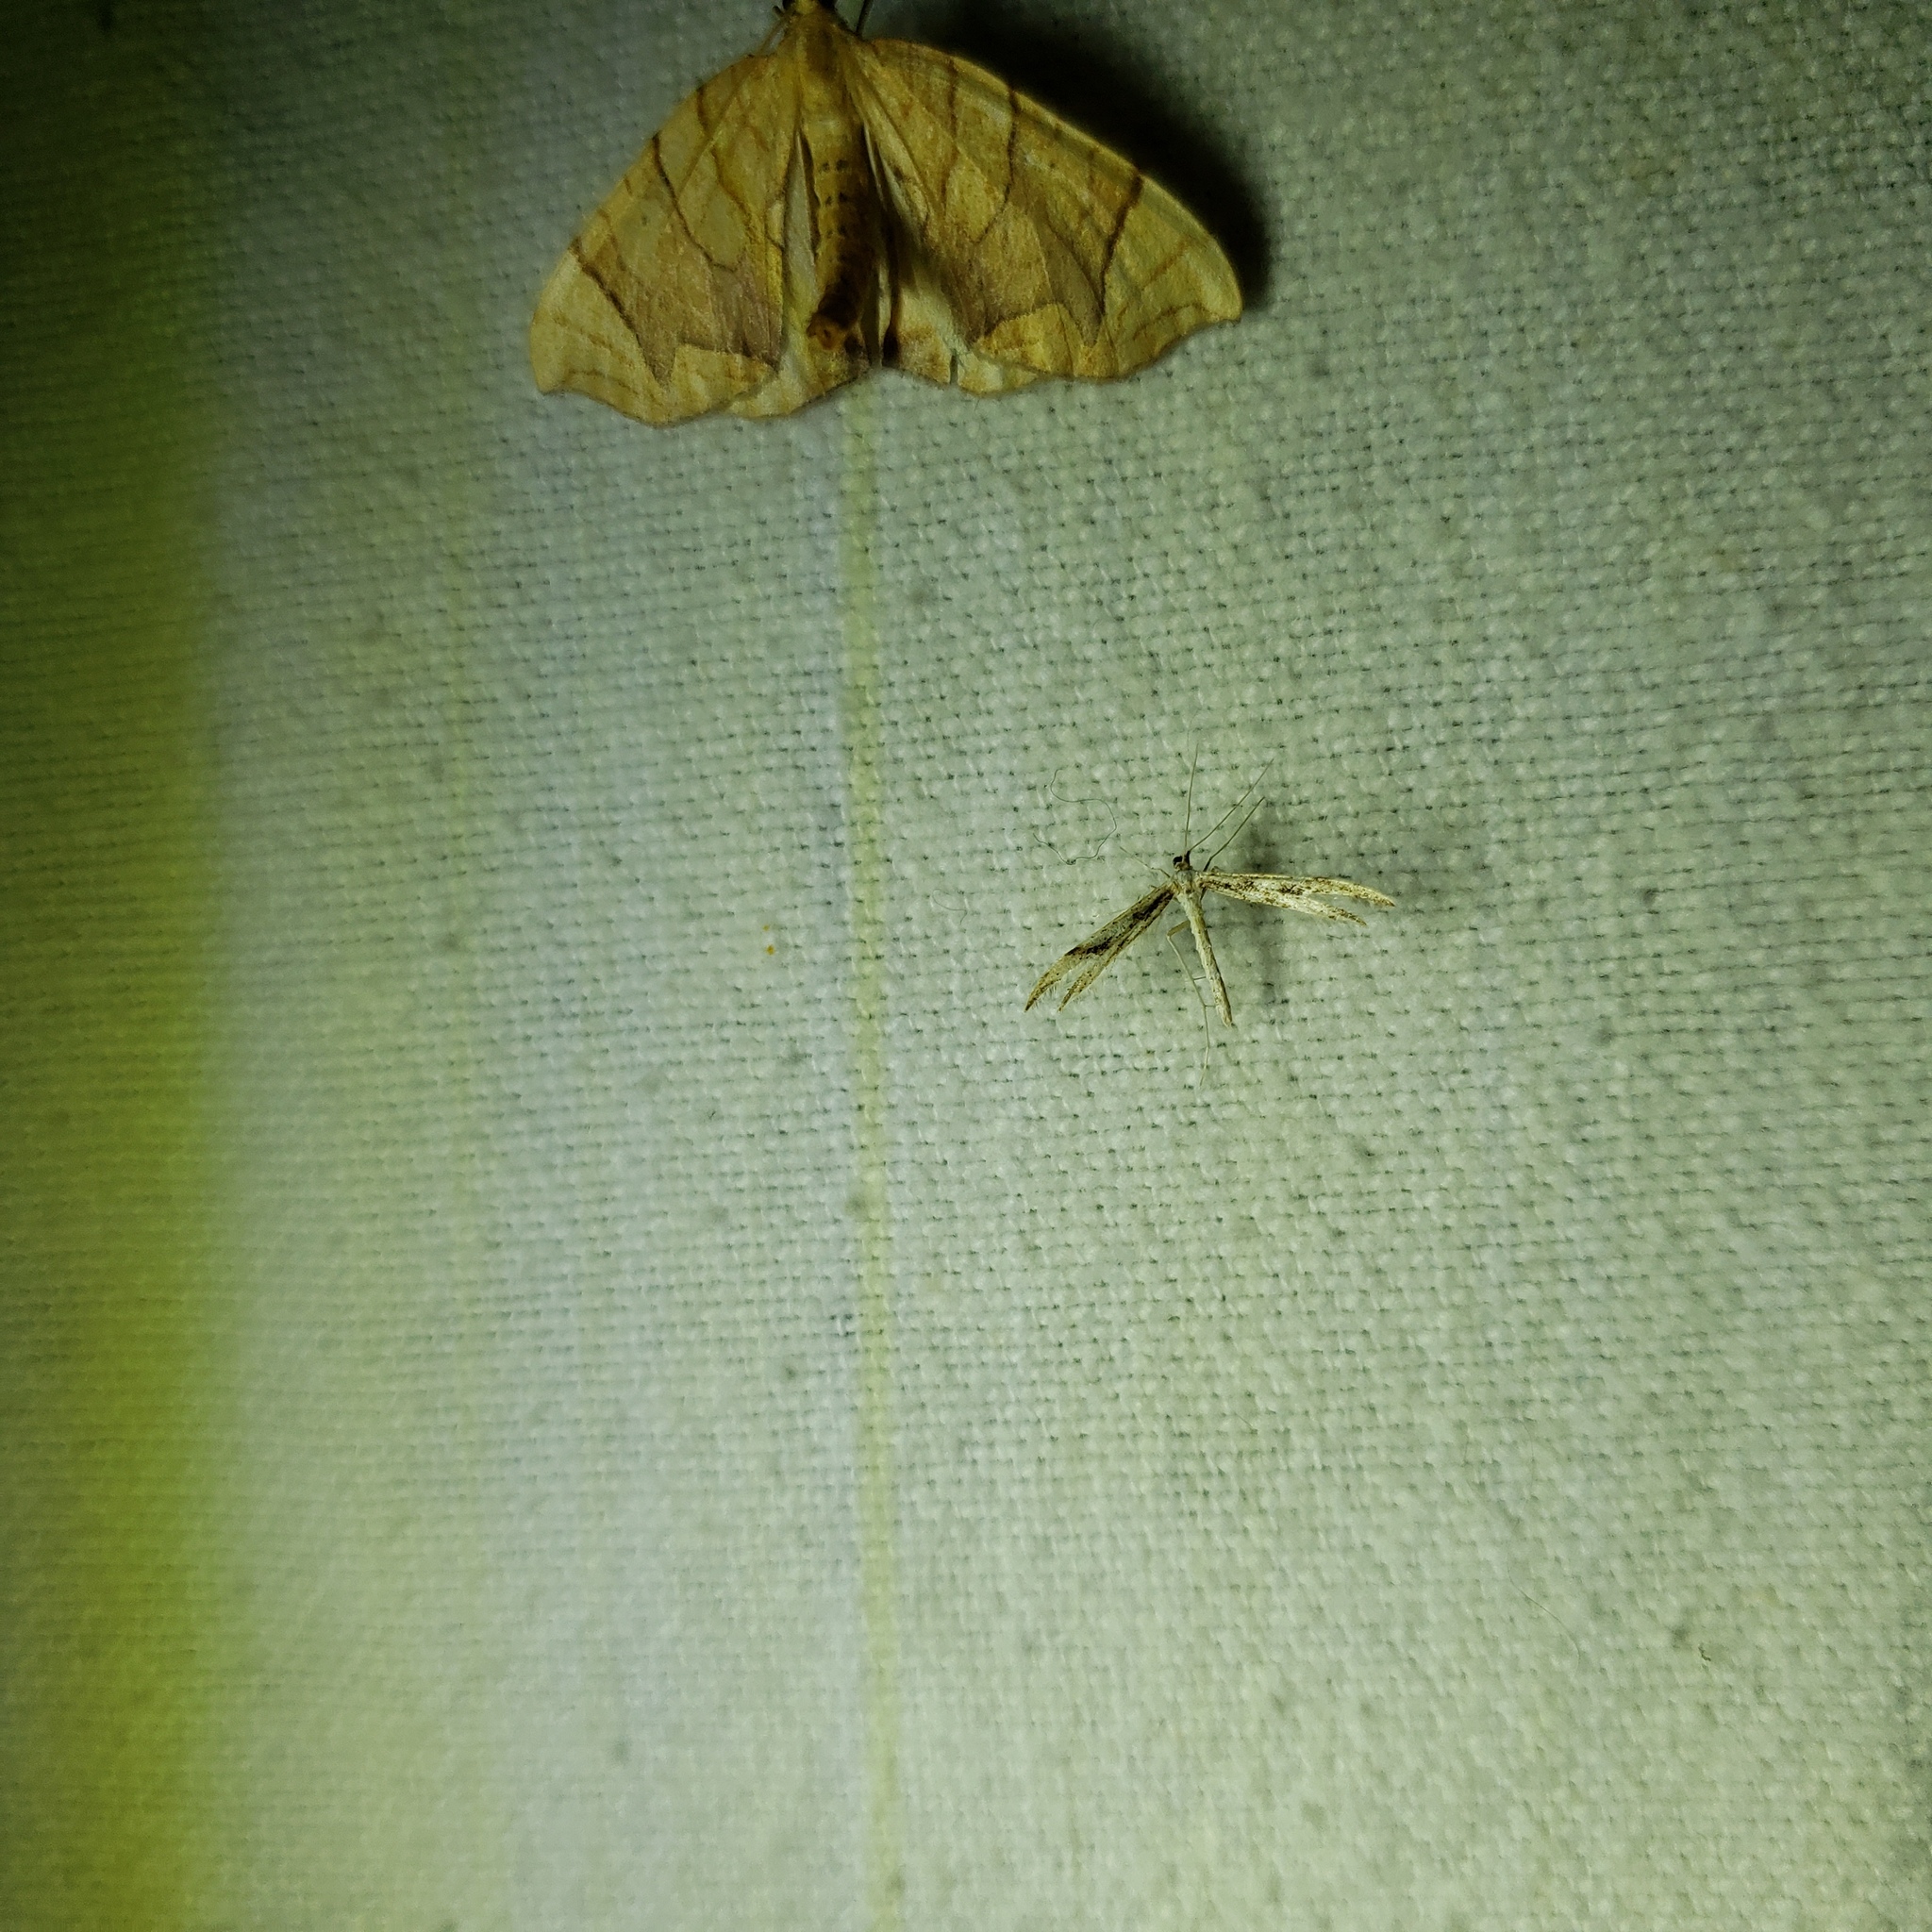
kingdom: Animalia
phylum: Arthropoda
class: Insecta
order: Lepidoptera
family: Pterophoridae
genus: Adaina
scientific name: Adaina montanus
